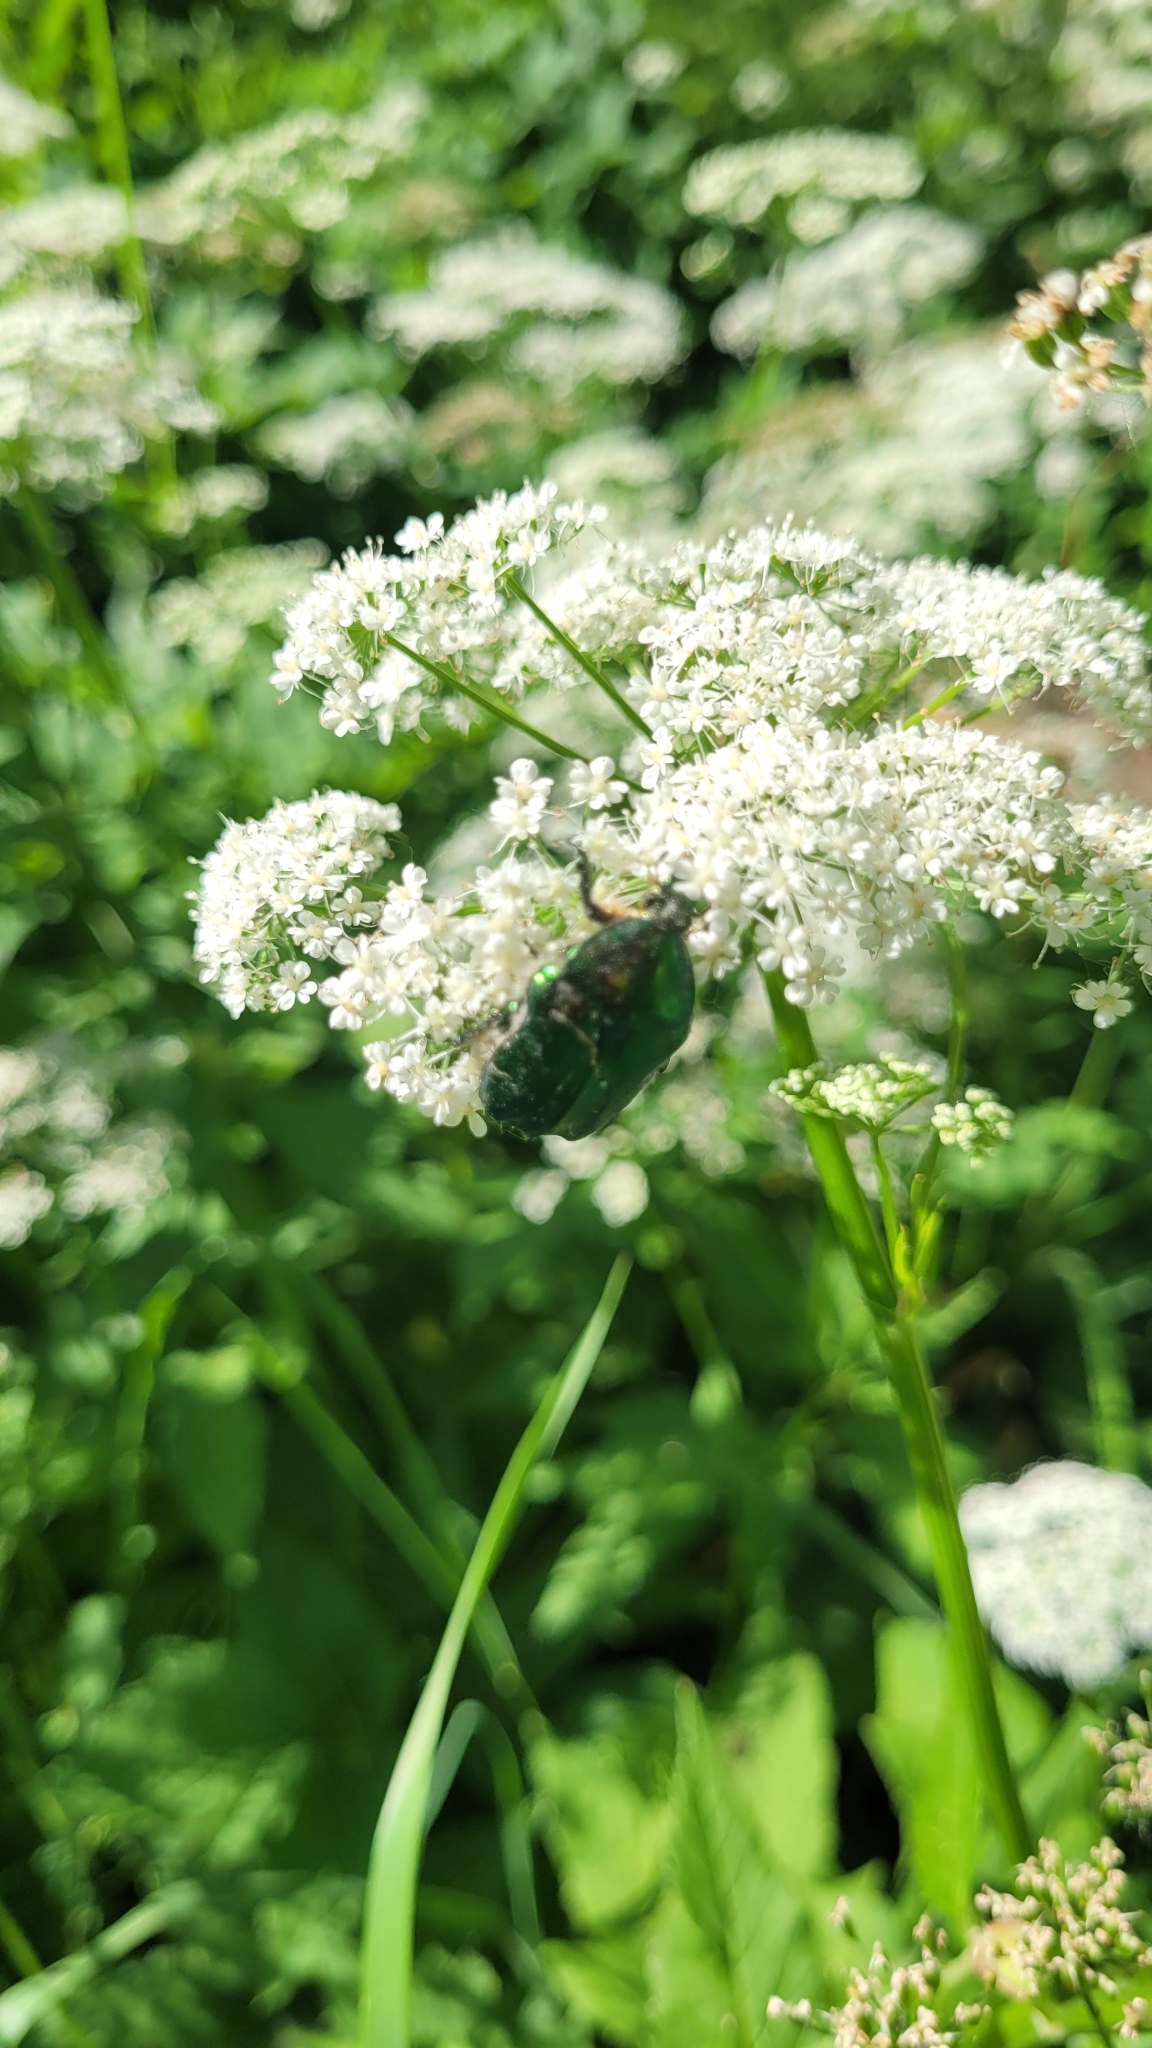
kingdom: Animalia
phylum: Arthropoda
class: Insecta
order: Coleoptera
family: Scarabaeidae
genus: Cetonia
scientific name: Cetonia aurata
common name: Rose chafer
